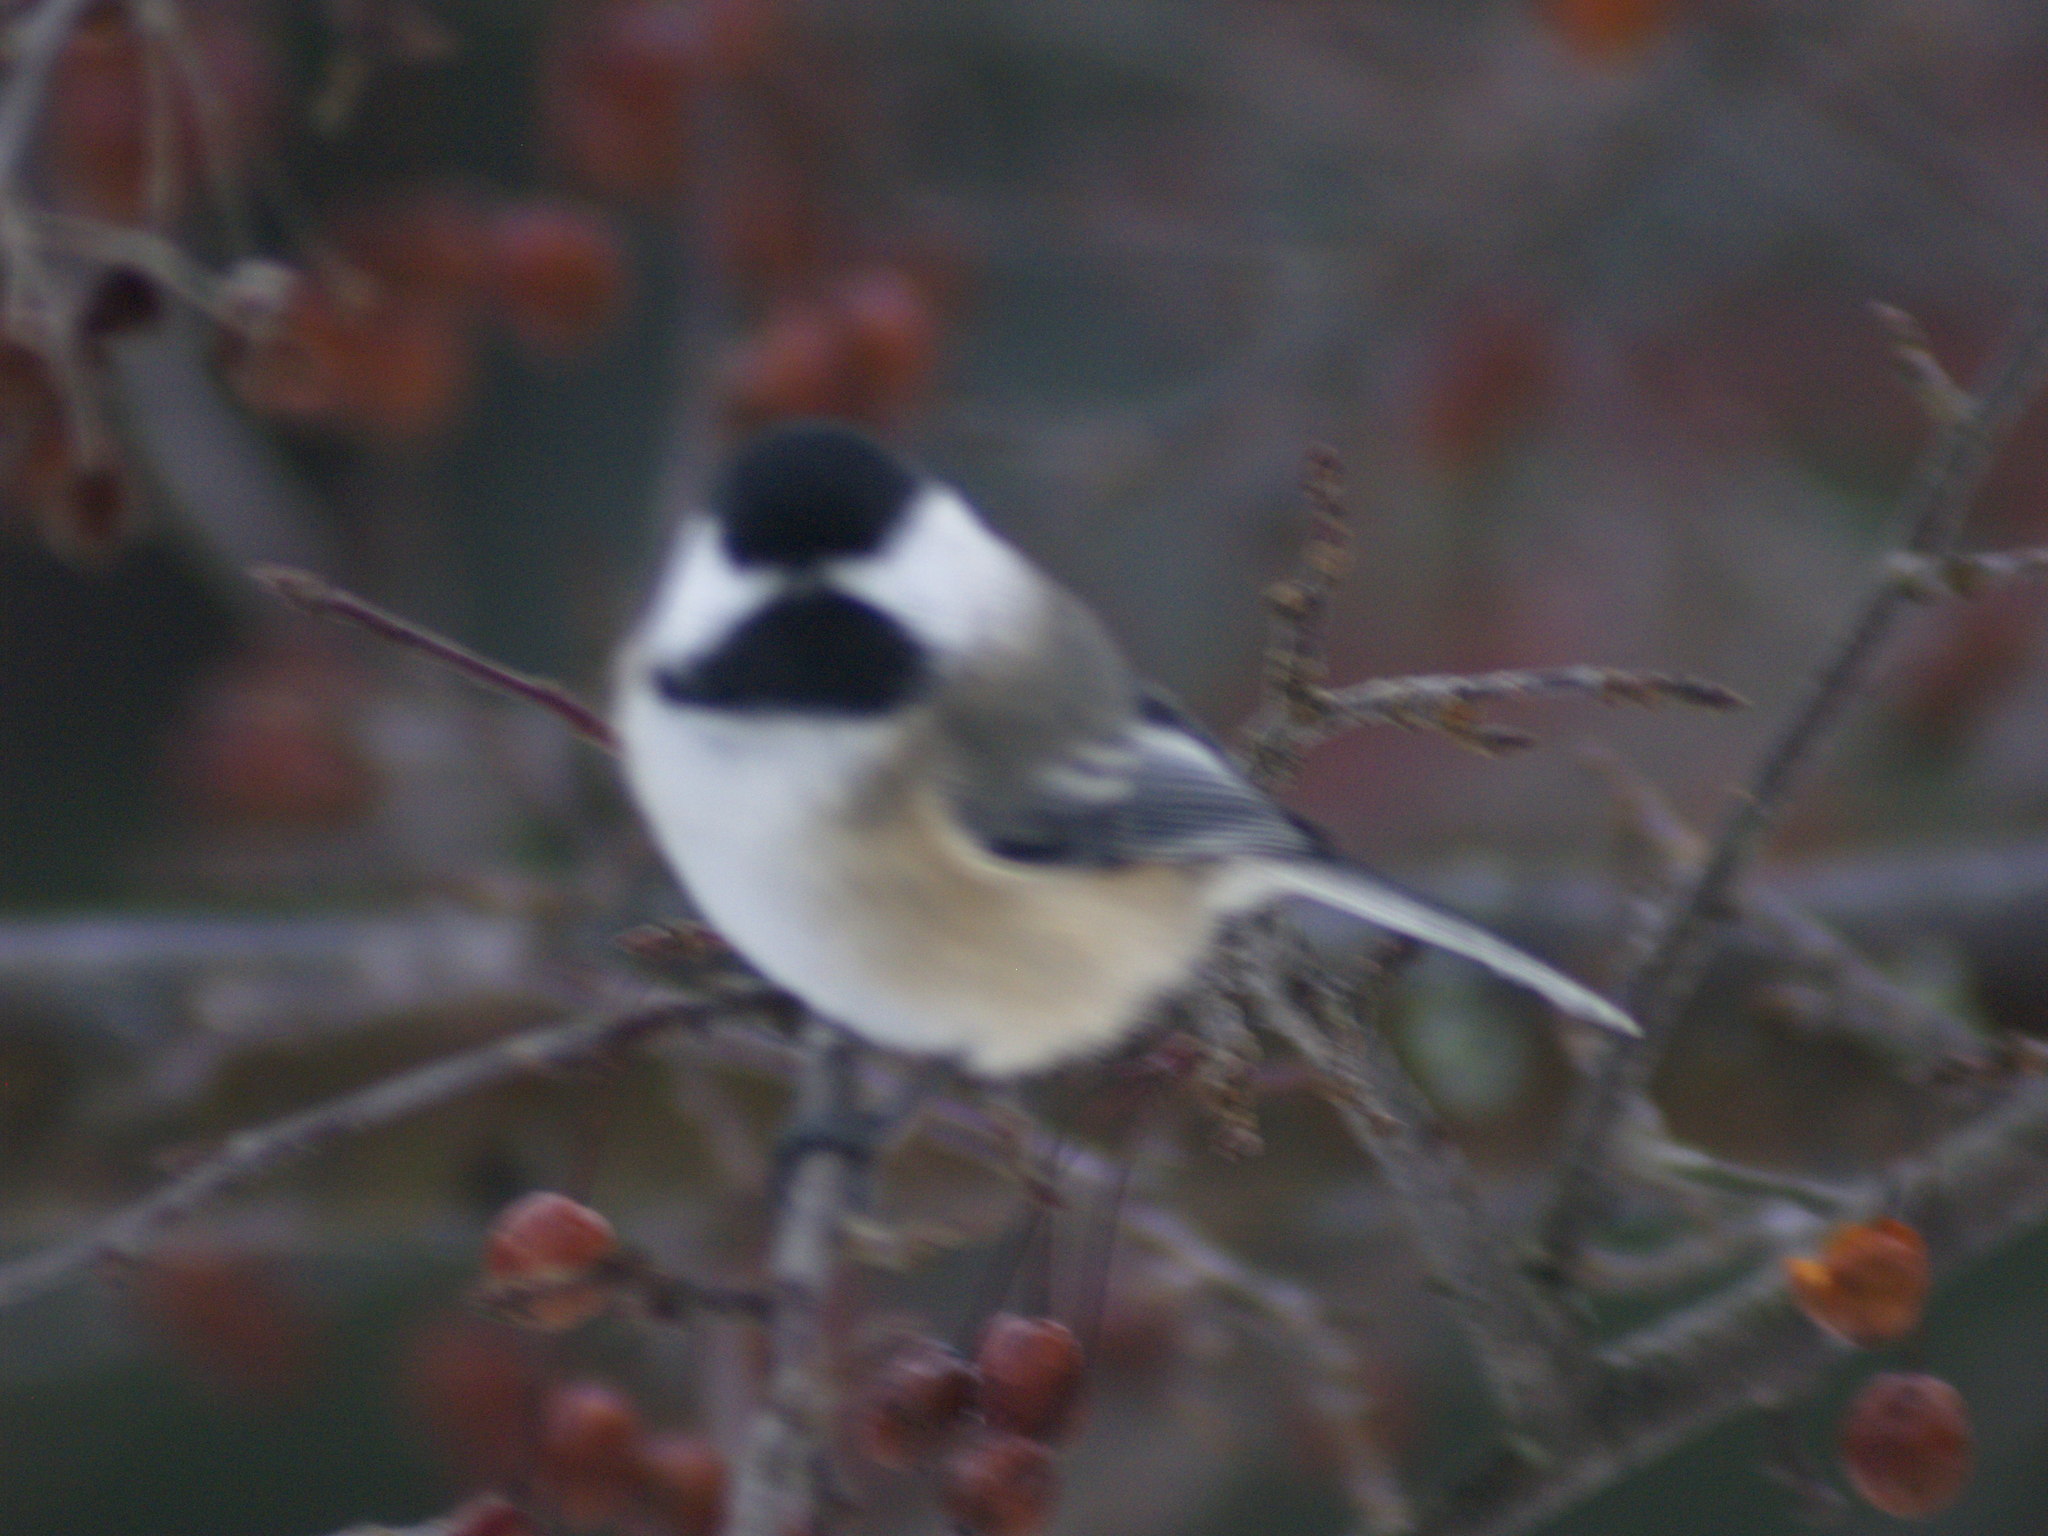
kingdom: Animalia
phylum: Chordata
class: Aves
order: Passeriformes
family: Paridae
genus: Poecile
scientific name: Poecile atricapillus
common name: Black-capped chickadee
